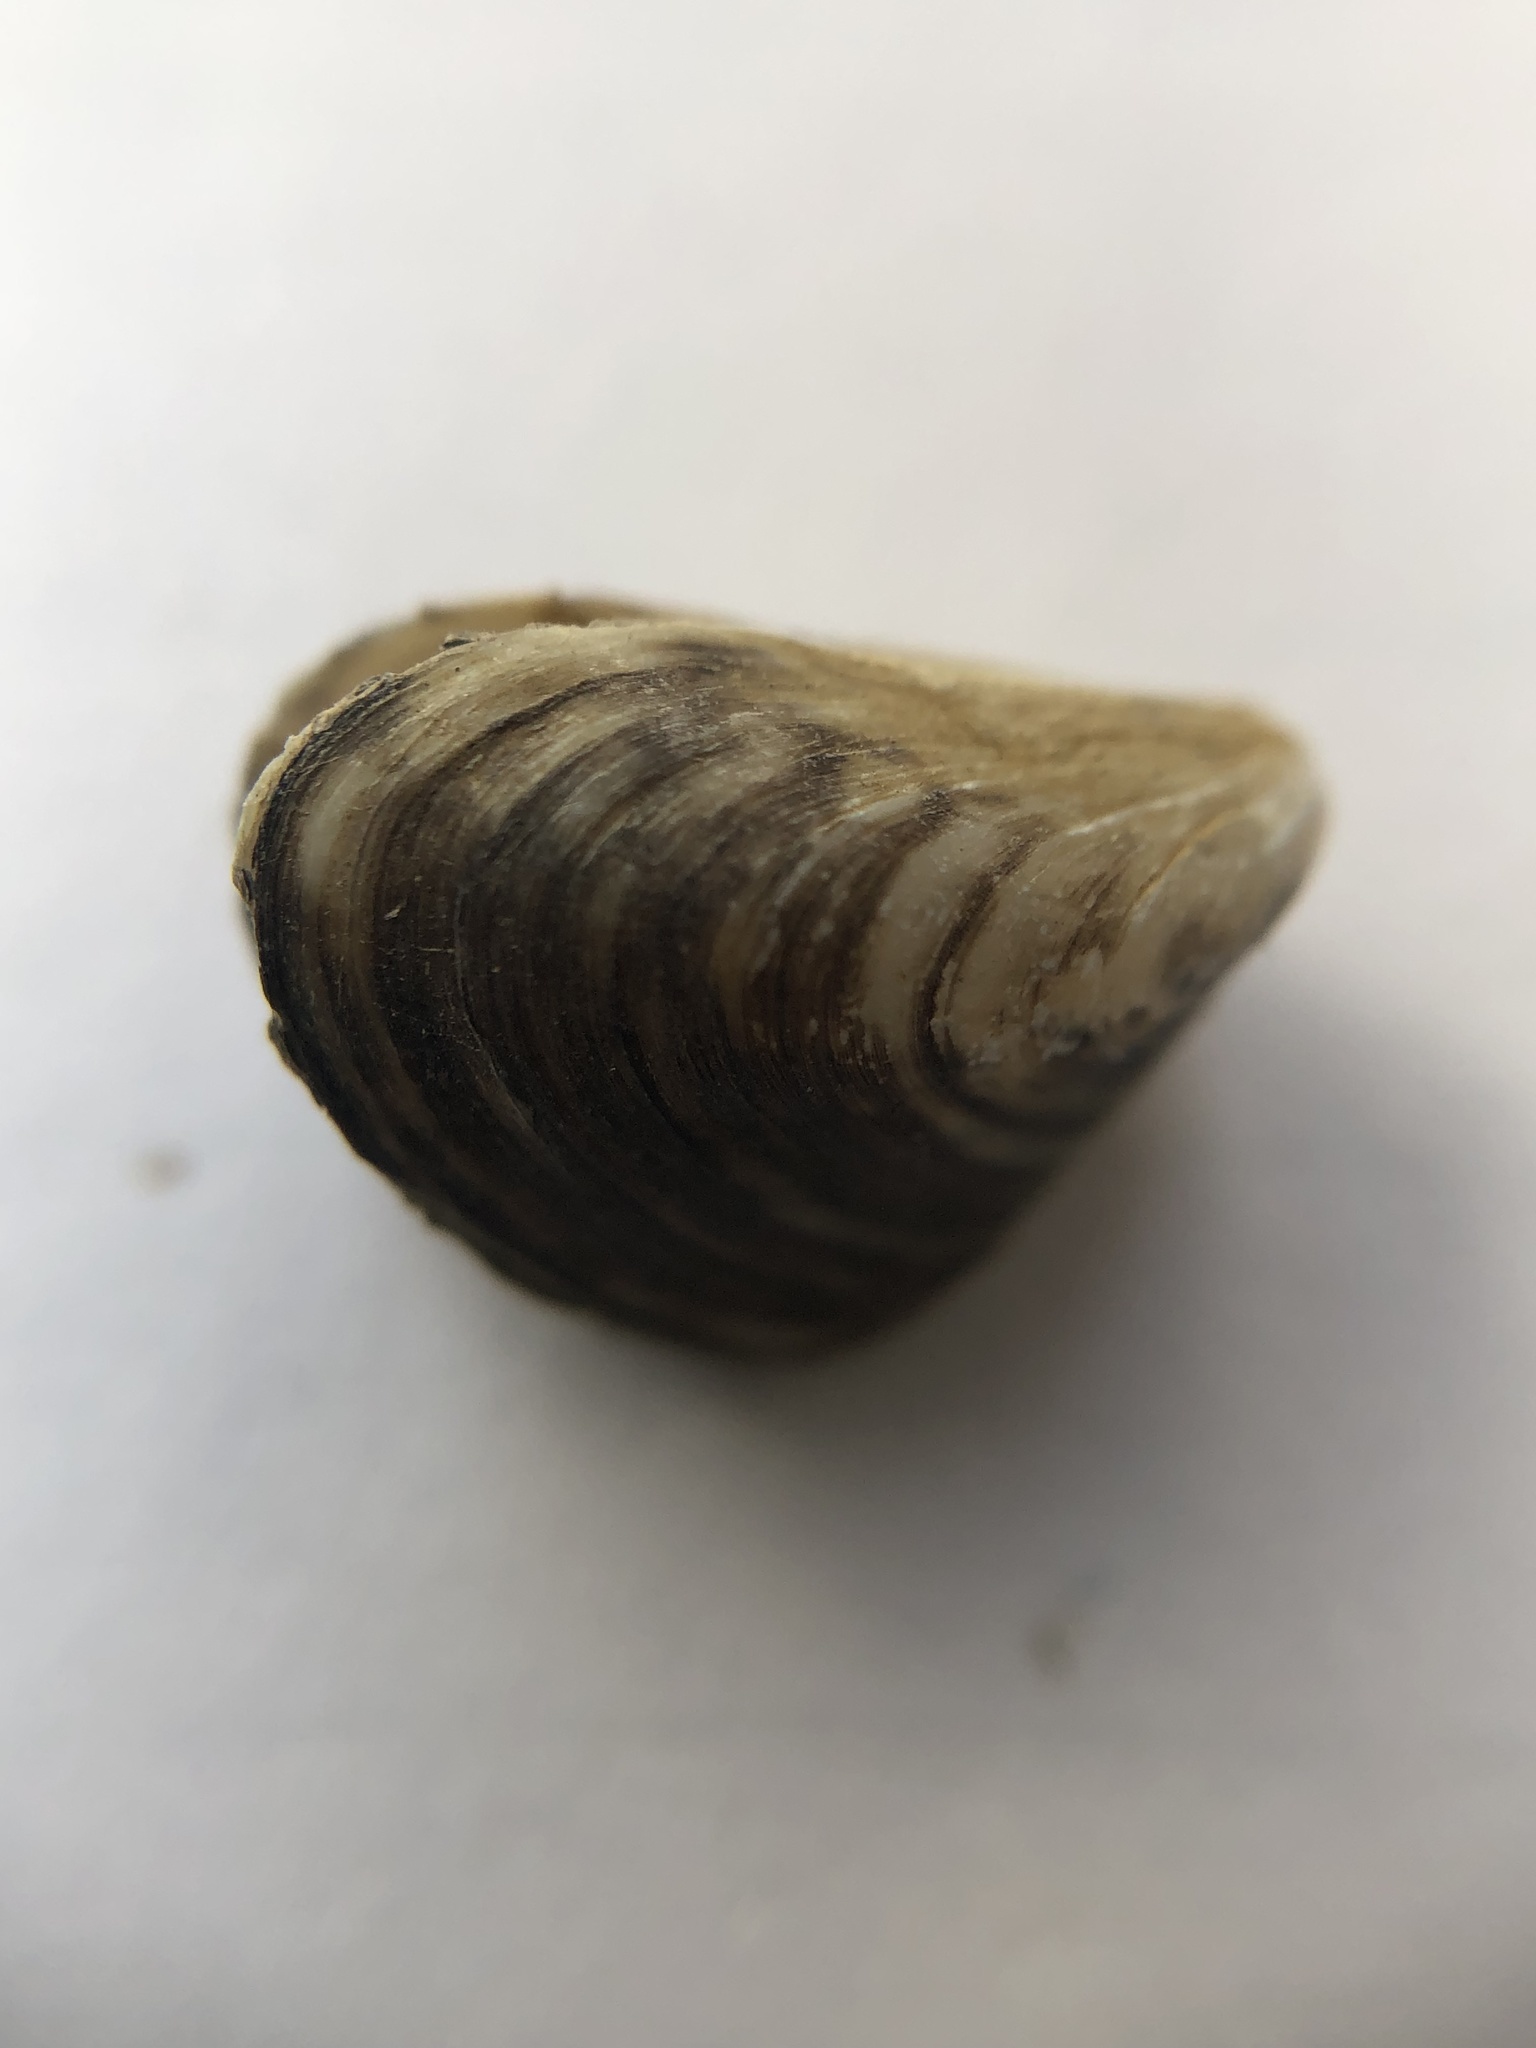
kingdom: Animalia
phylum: Mollusca
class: Bivalvia
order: Myida
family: Dreissenidae
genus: Dreissena
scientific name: Dreissena bugensis
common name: Quagga mussel
